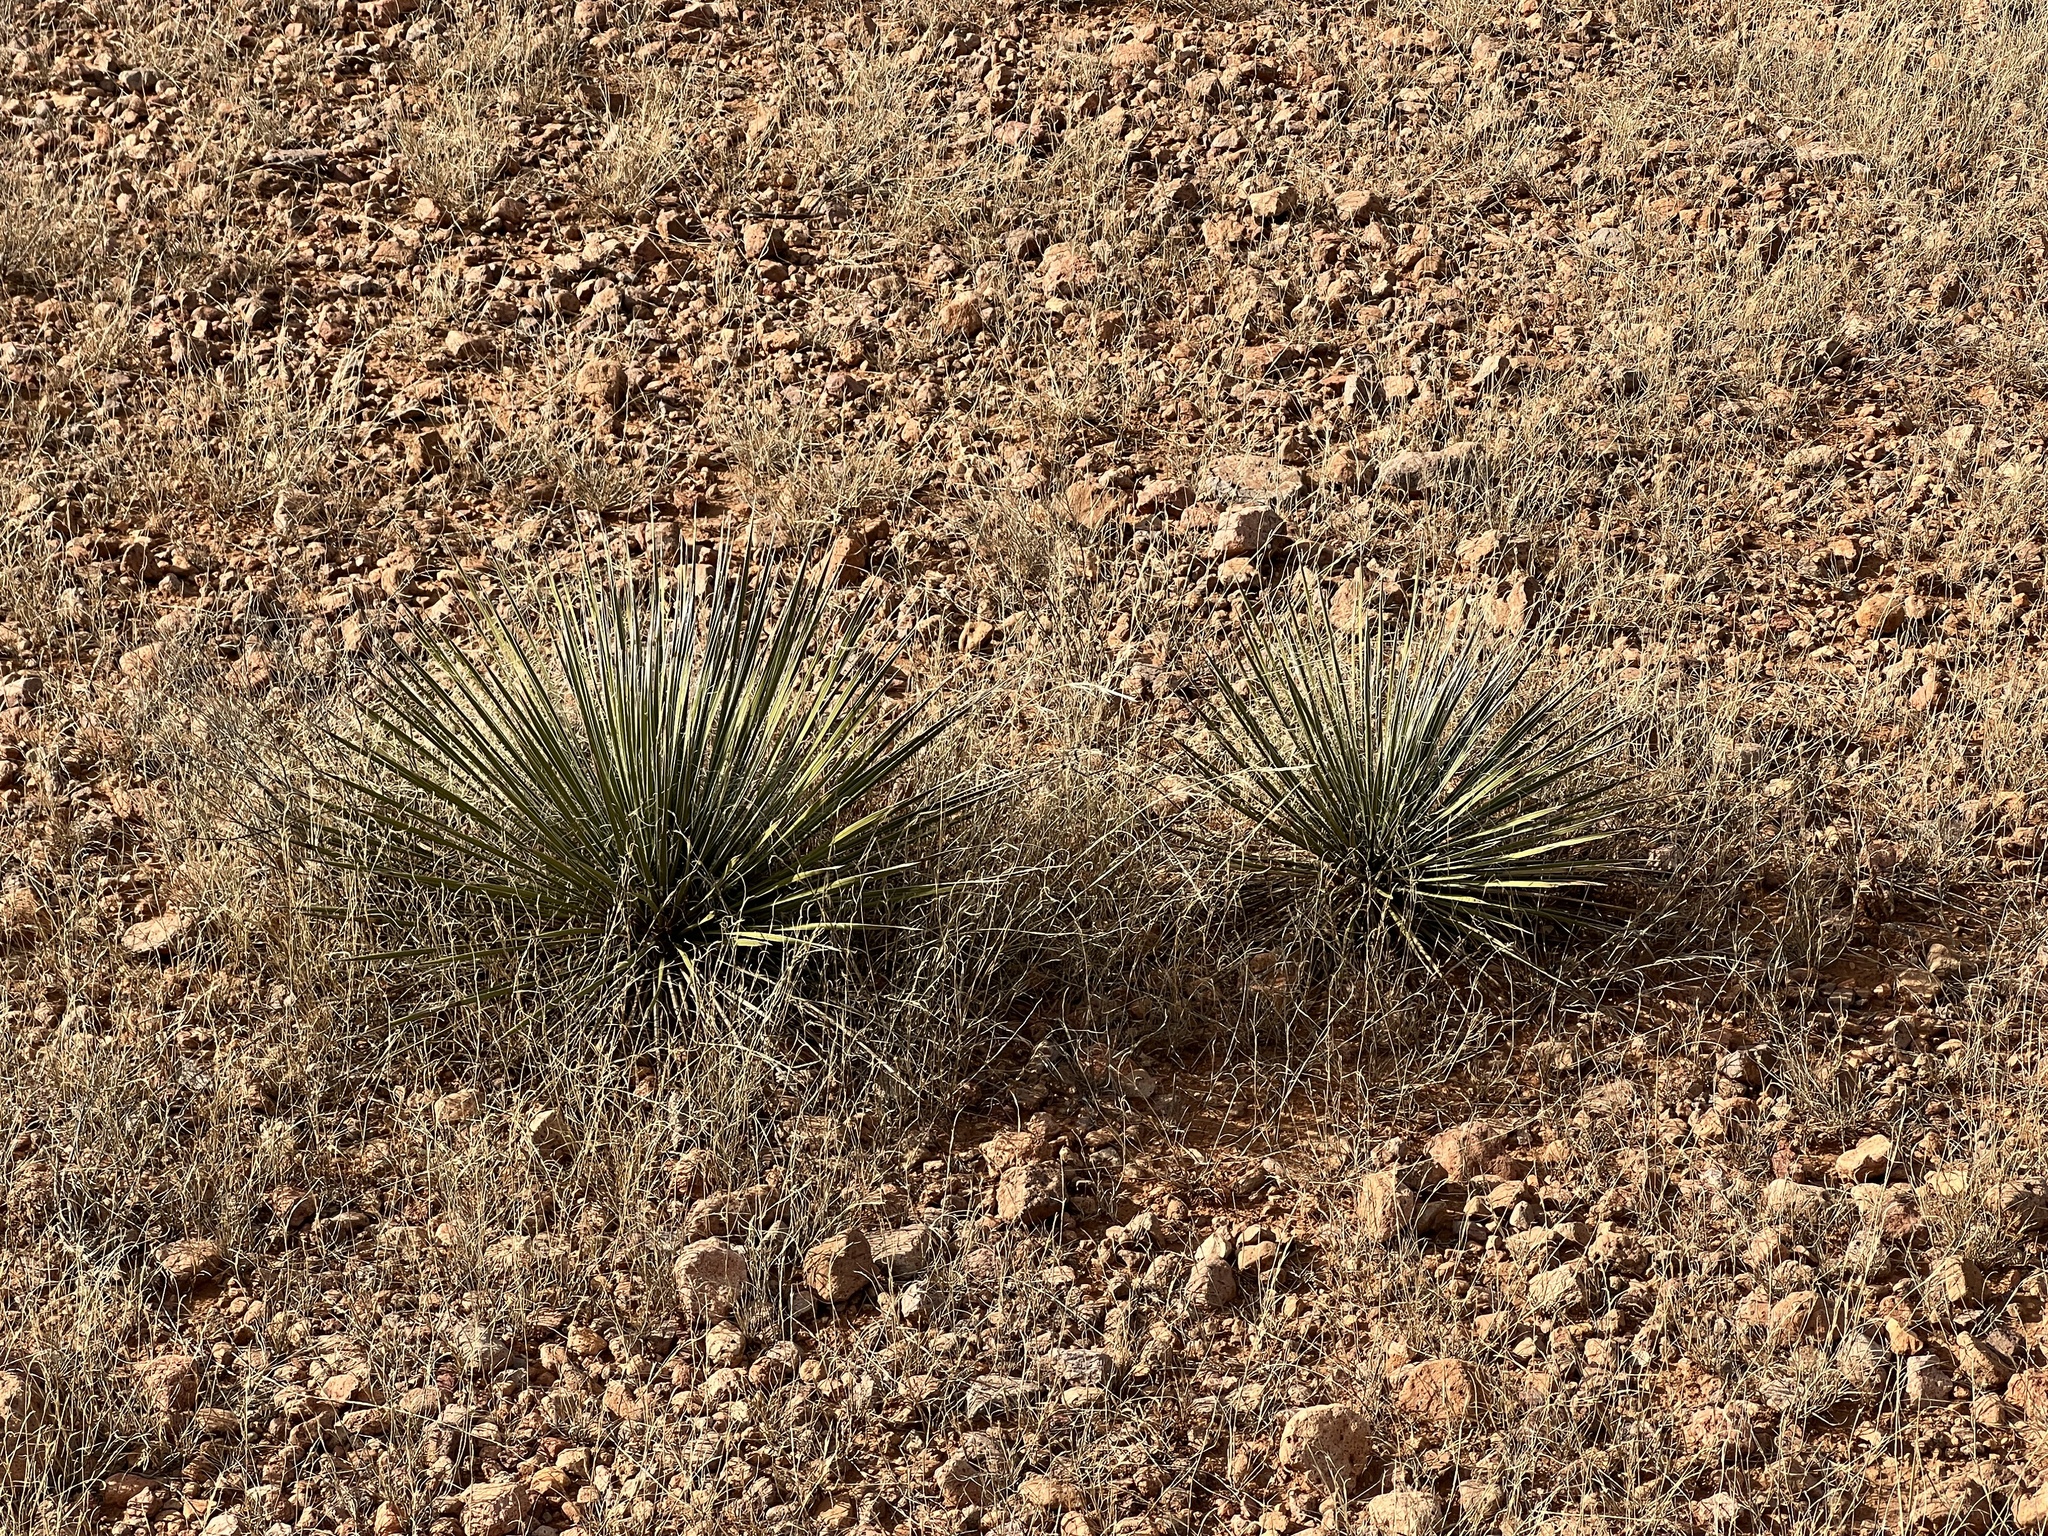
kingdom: Plantae
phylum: Tracheophyta
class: Liliopsida
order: Asparagales
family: Asparagaceae
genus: Yucca
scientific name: Yucca elata
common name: Palmella
